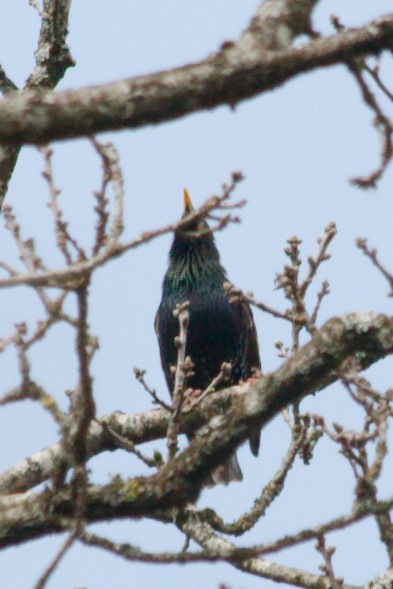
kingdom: Animalia
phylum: Chordata
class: Aves
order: Passeriformes
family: Sturnidae
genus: Sturnus
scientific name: Sturnus vulgaris
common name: Common starling
